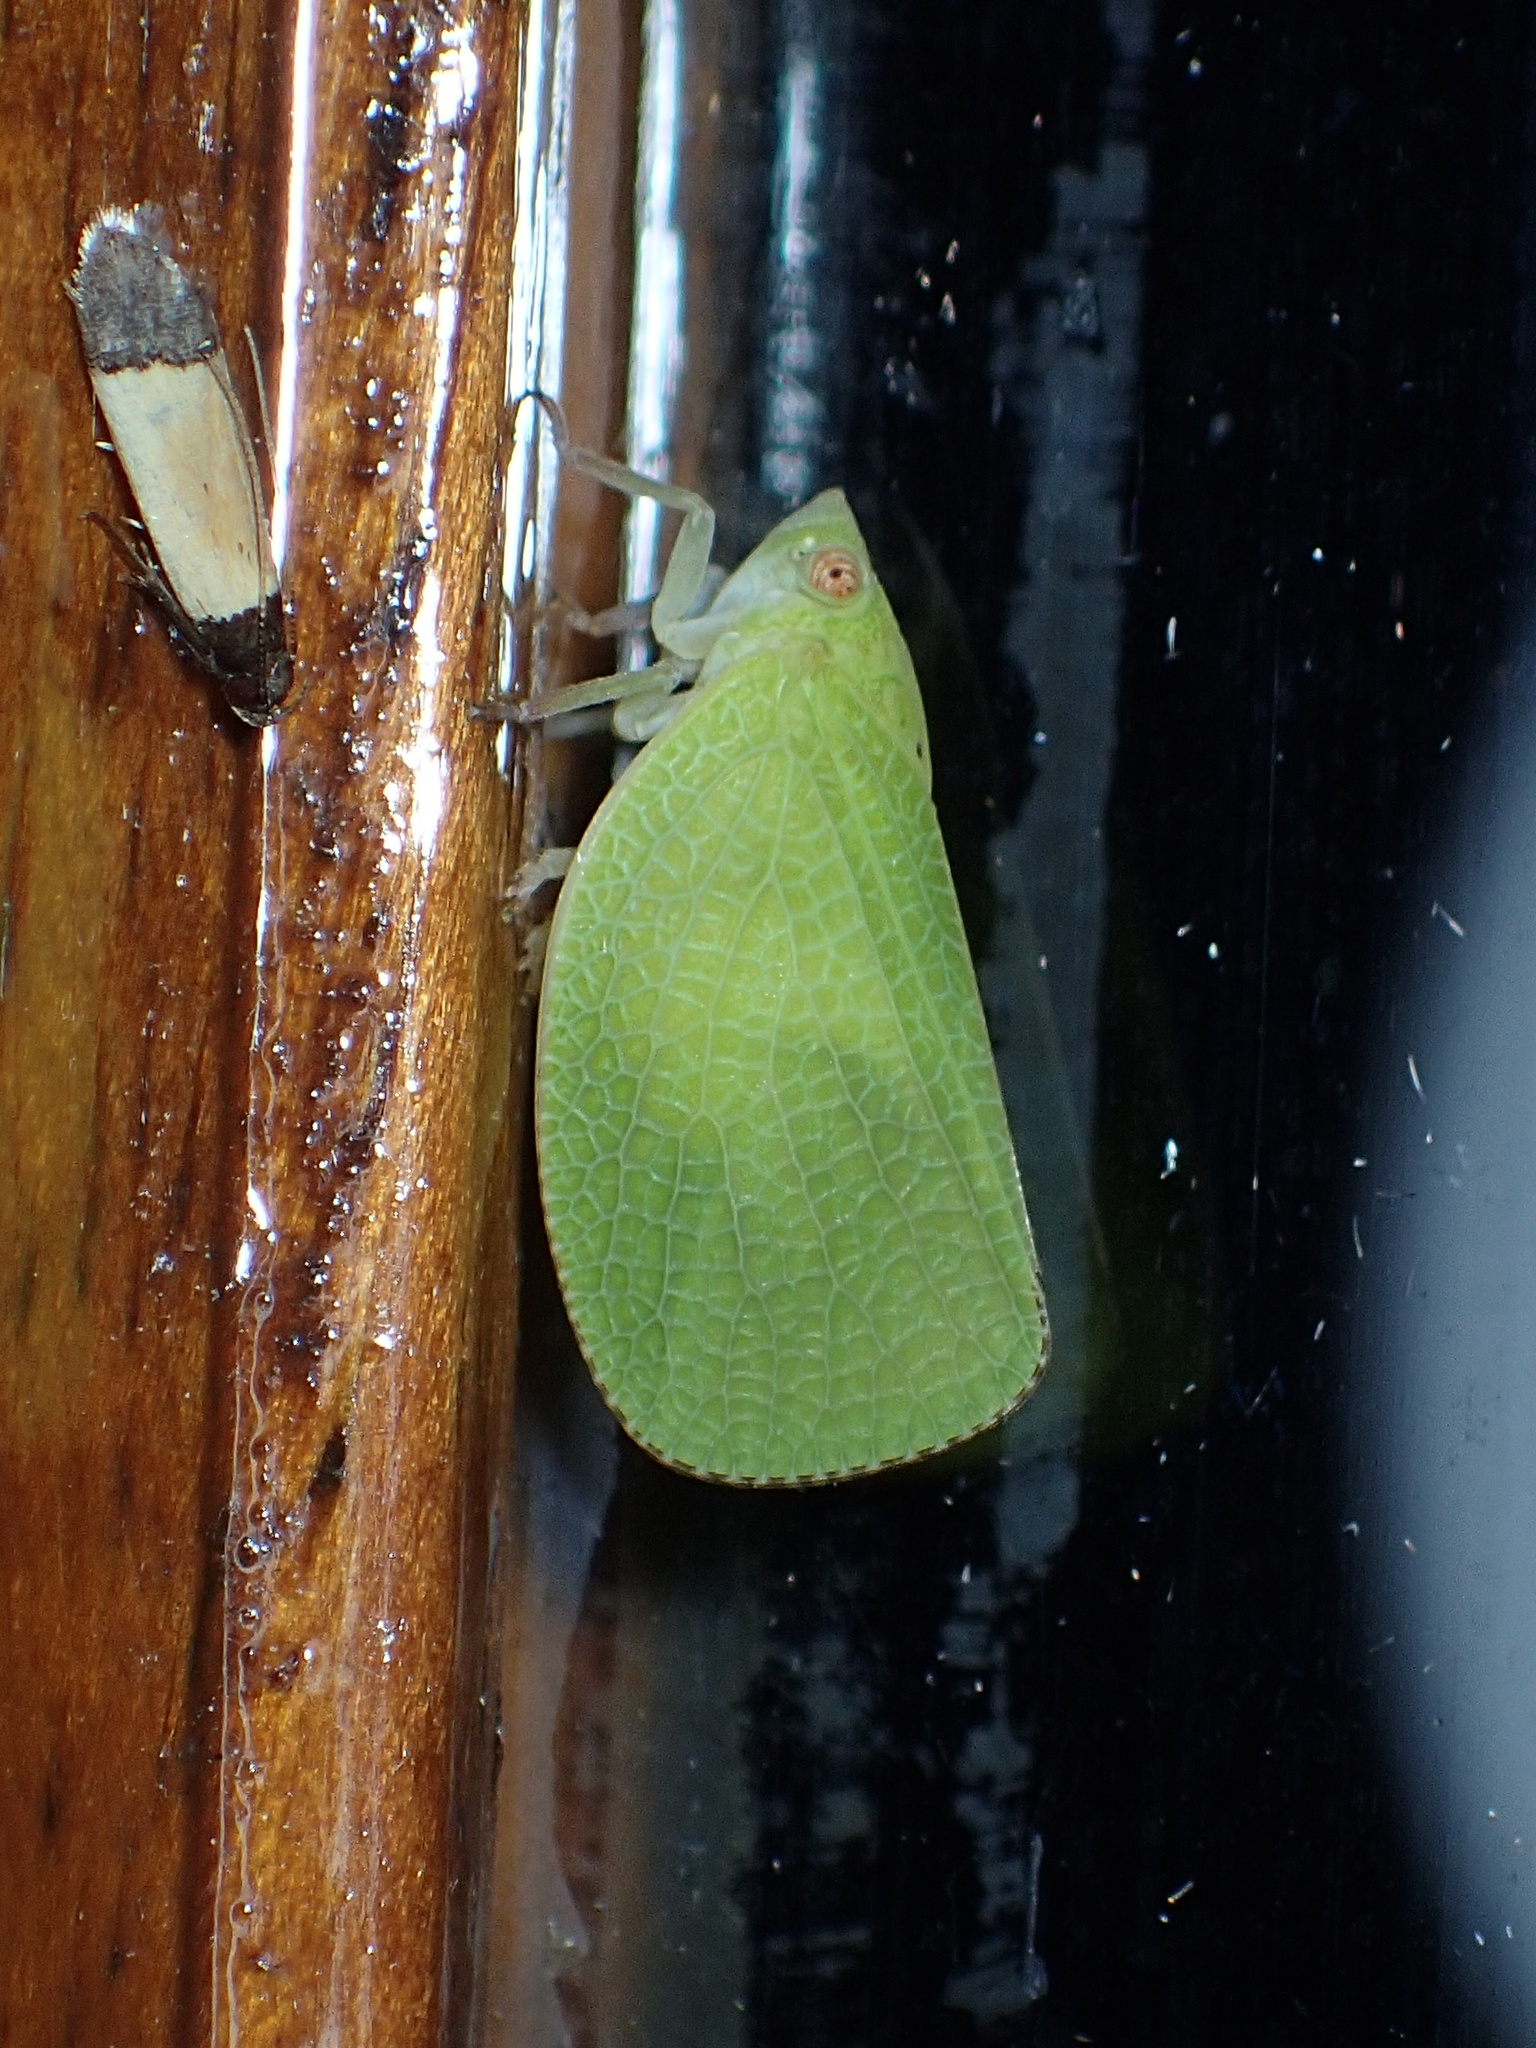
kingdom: Animalia
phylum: Arthropoda
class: Insecta
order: Hemiptera
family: Acanaloniidae
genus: Acanalonia
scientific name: Acanalonia conica
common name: Green cone-headed planthopper
